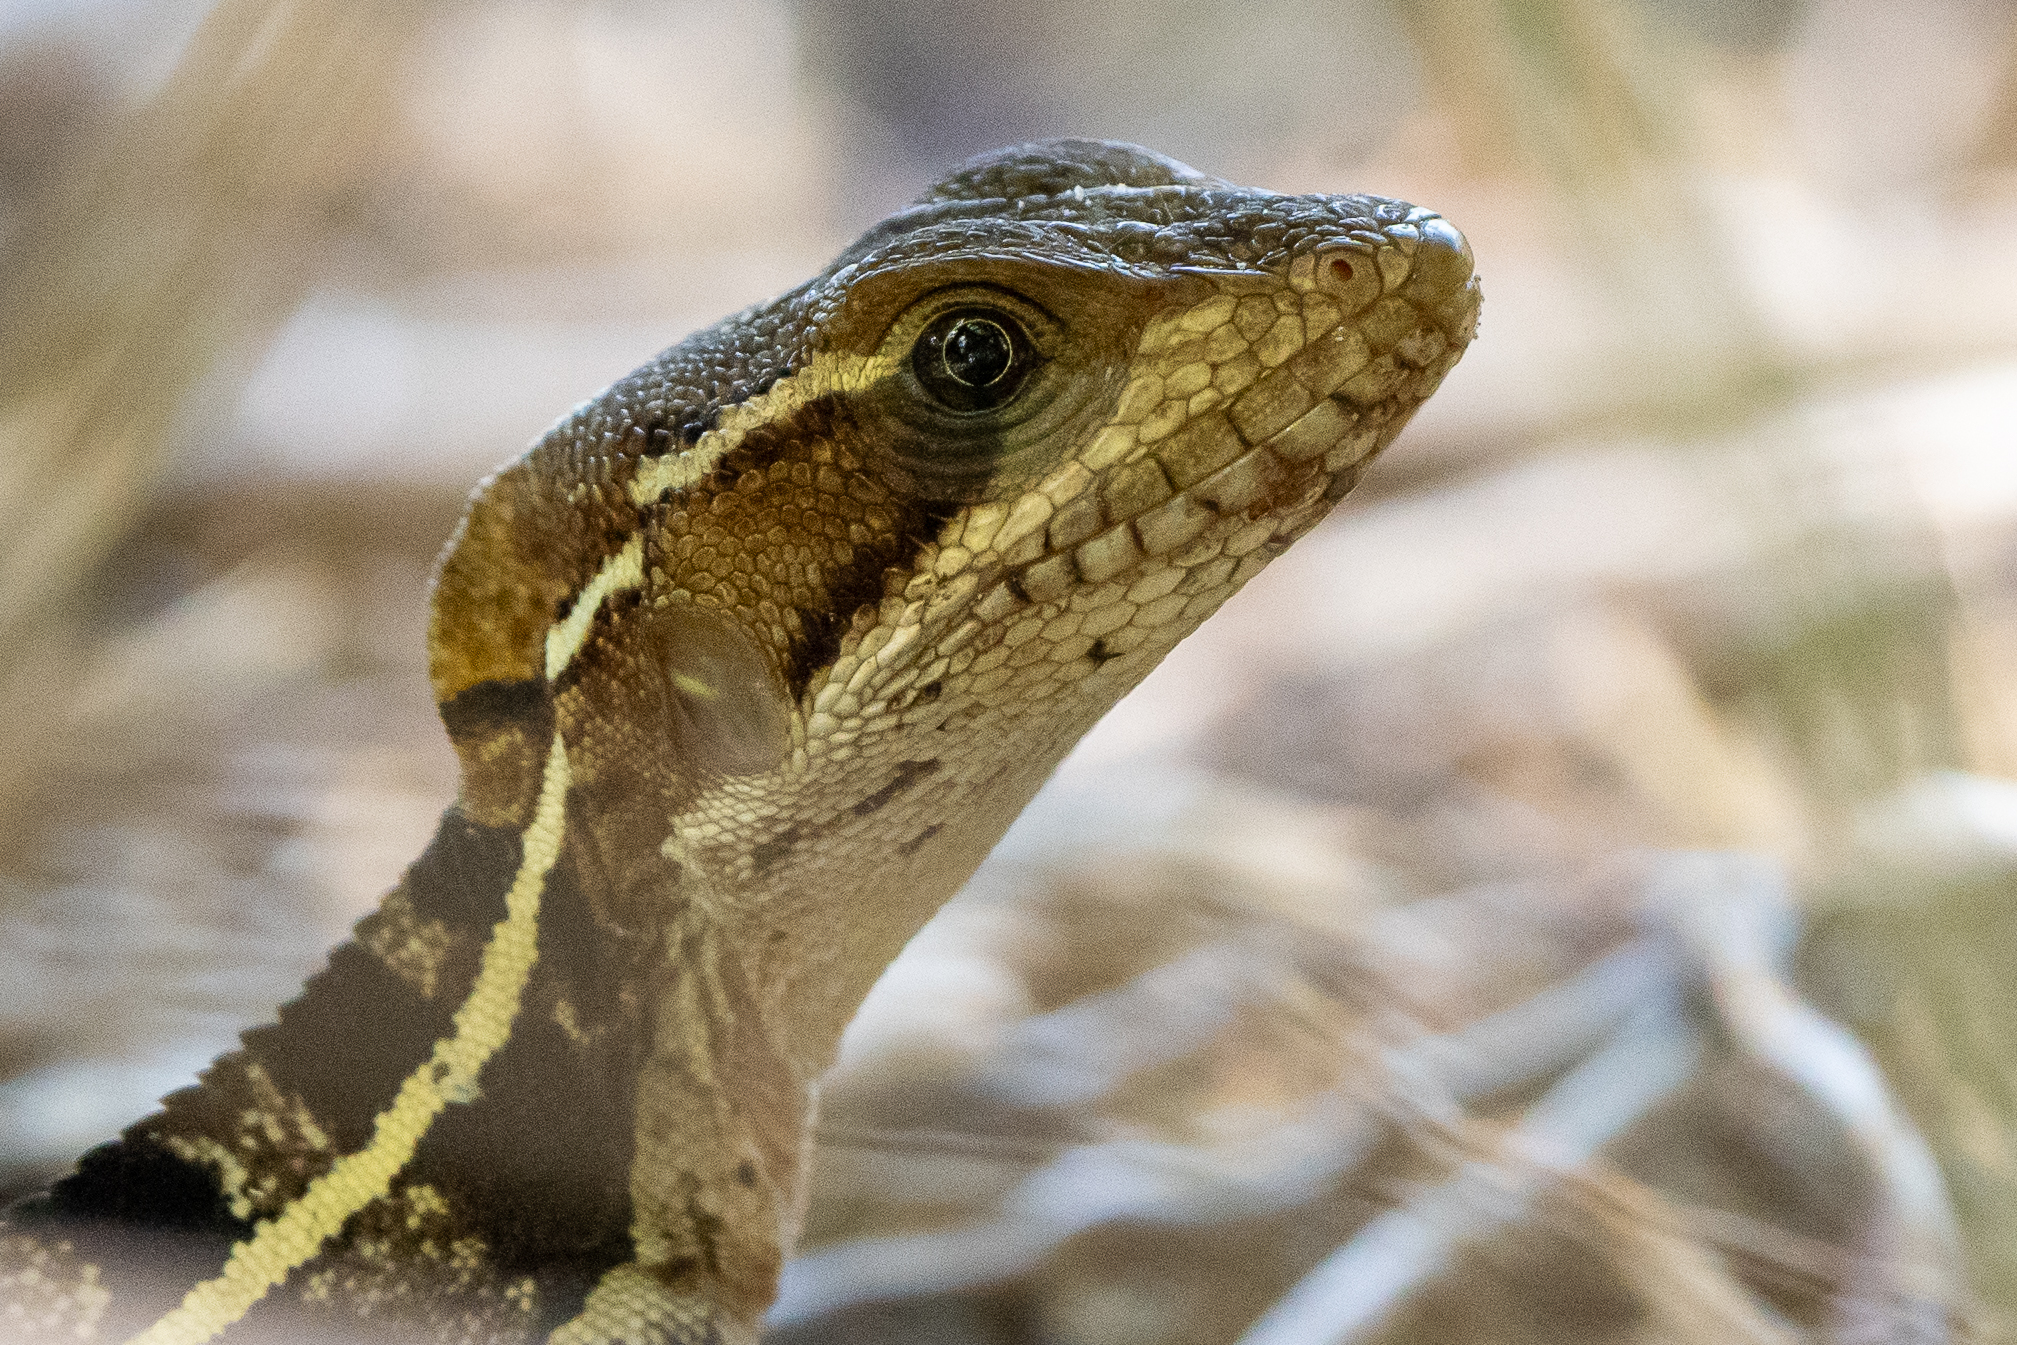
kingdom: Animalia
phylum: Chordata
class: Squamata
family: Corytophanidae
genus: Basiliscus
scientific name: Basiliscus vittatus
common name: Brown basilisk
